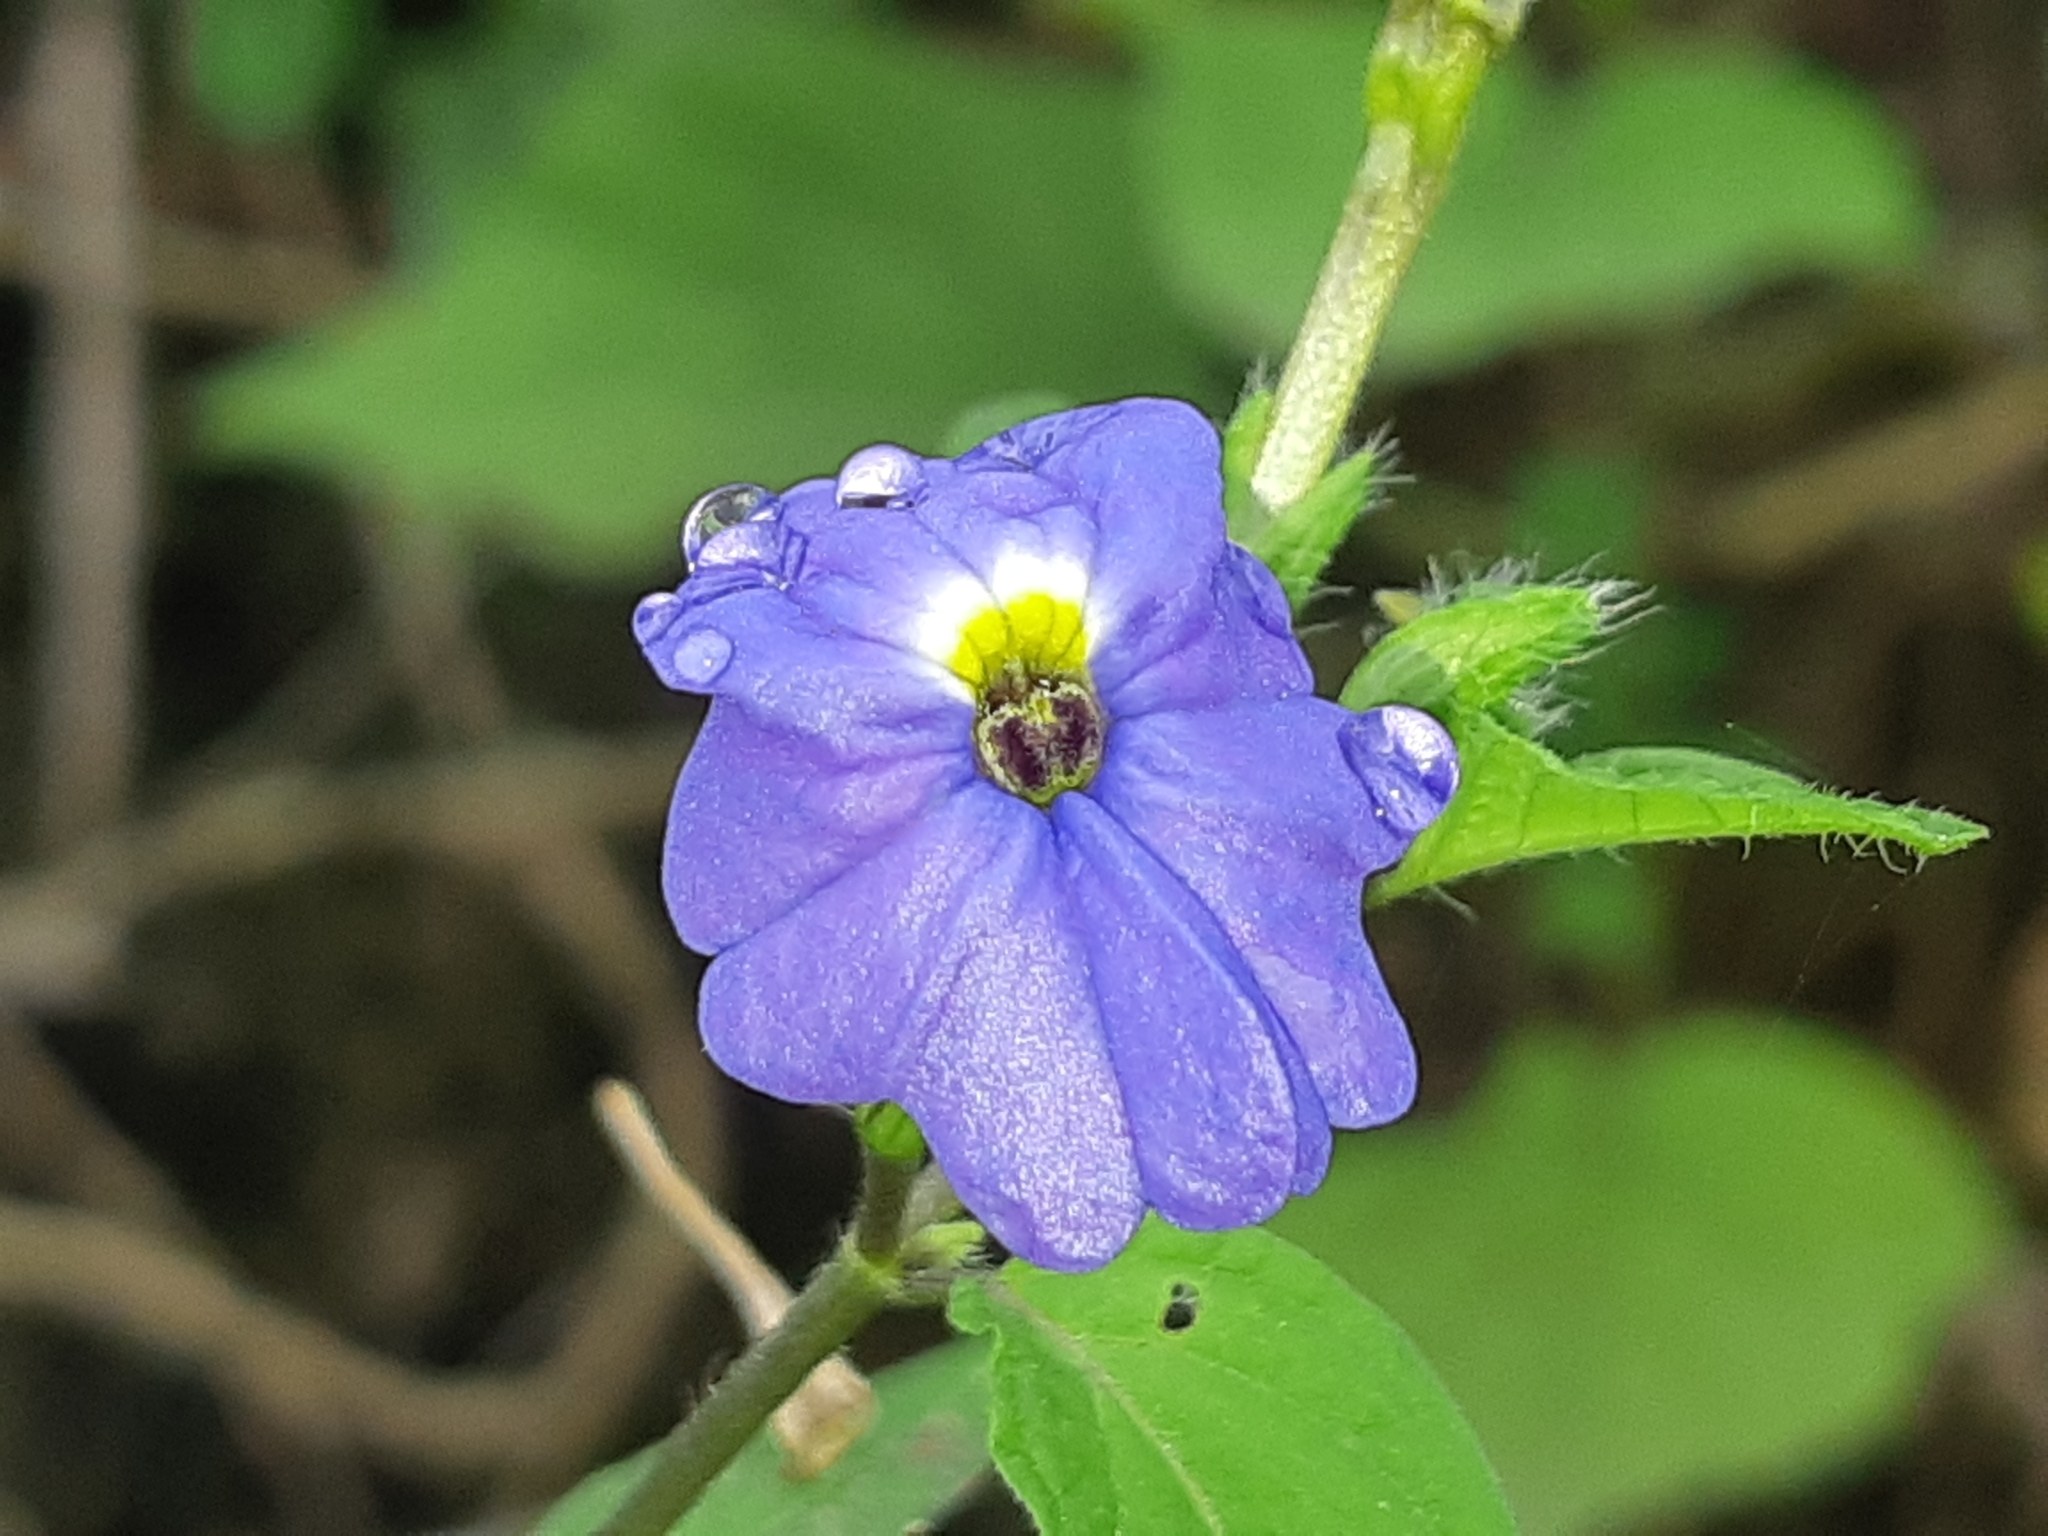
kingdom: Plantae
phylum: Tracheophyta
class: Magnoliopsida
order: Solanales
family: Solanaceae
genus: Browallia
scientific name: Browallia americana
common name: Jamaican forget-me-not
